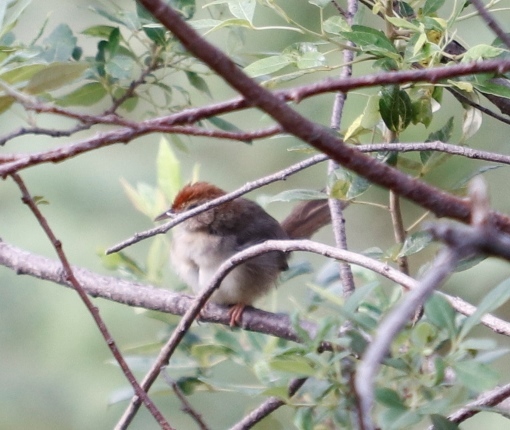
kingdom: Animalia
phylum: Chordata
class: Aves
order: Passeriformes
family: Cisticolidae
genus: Cisticola
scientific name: Cisticola fulvicapilla
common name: Neddicky
